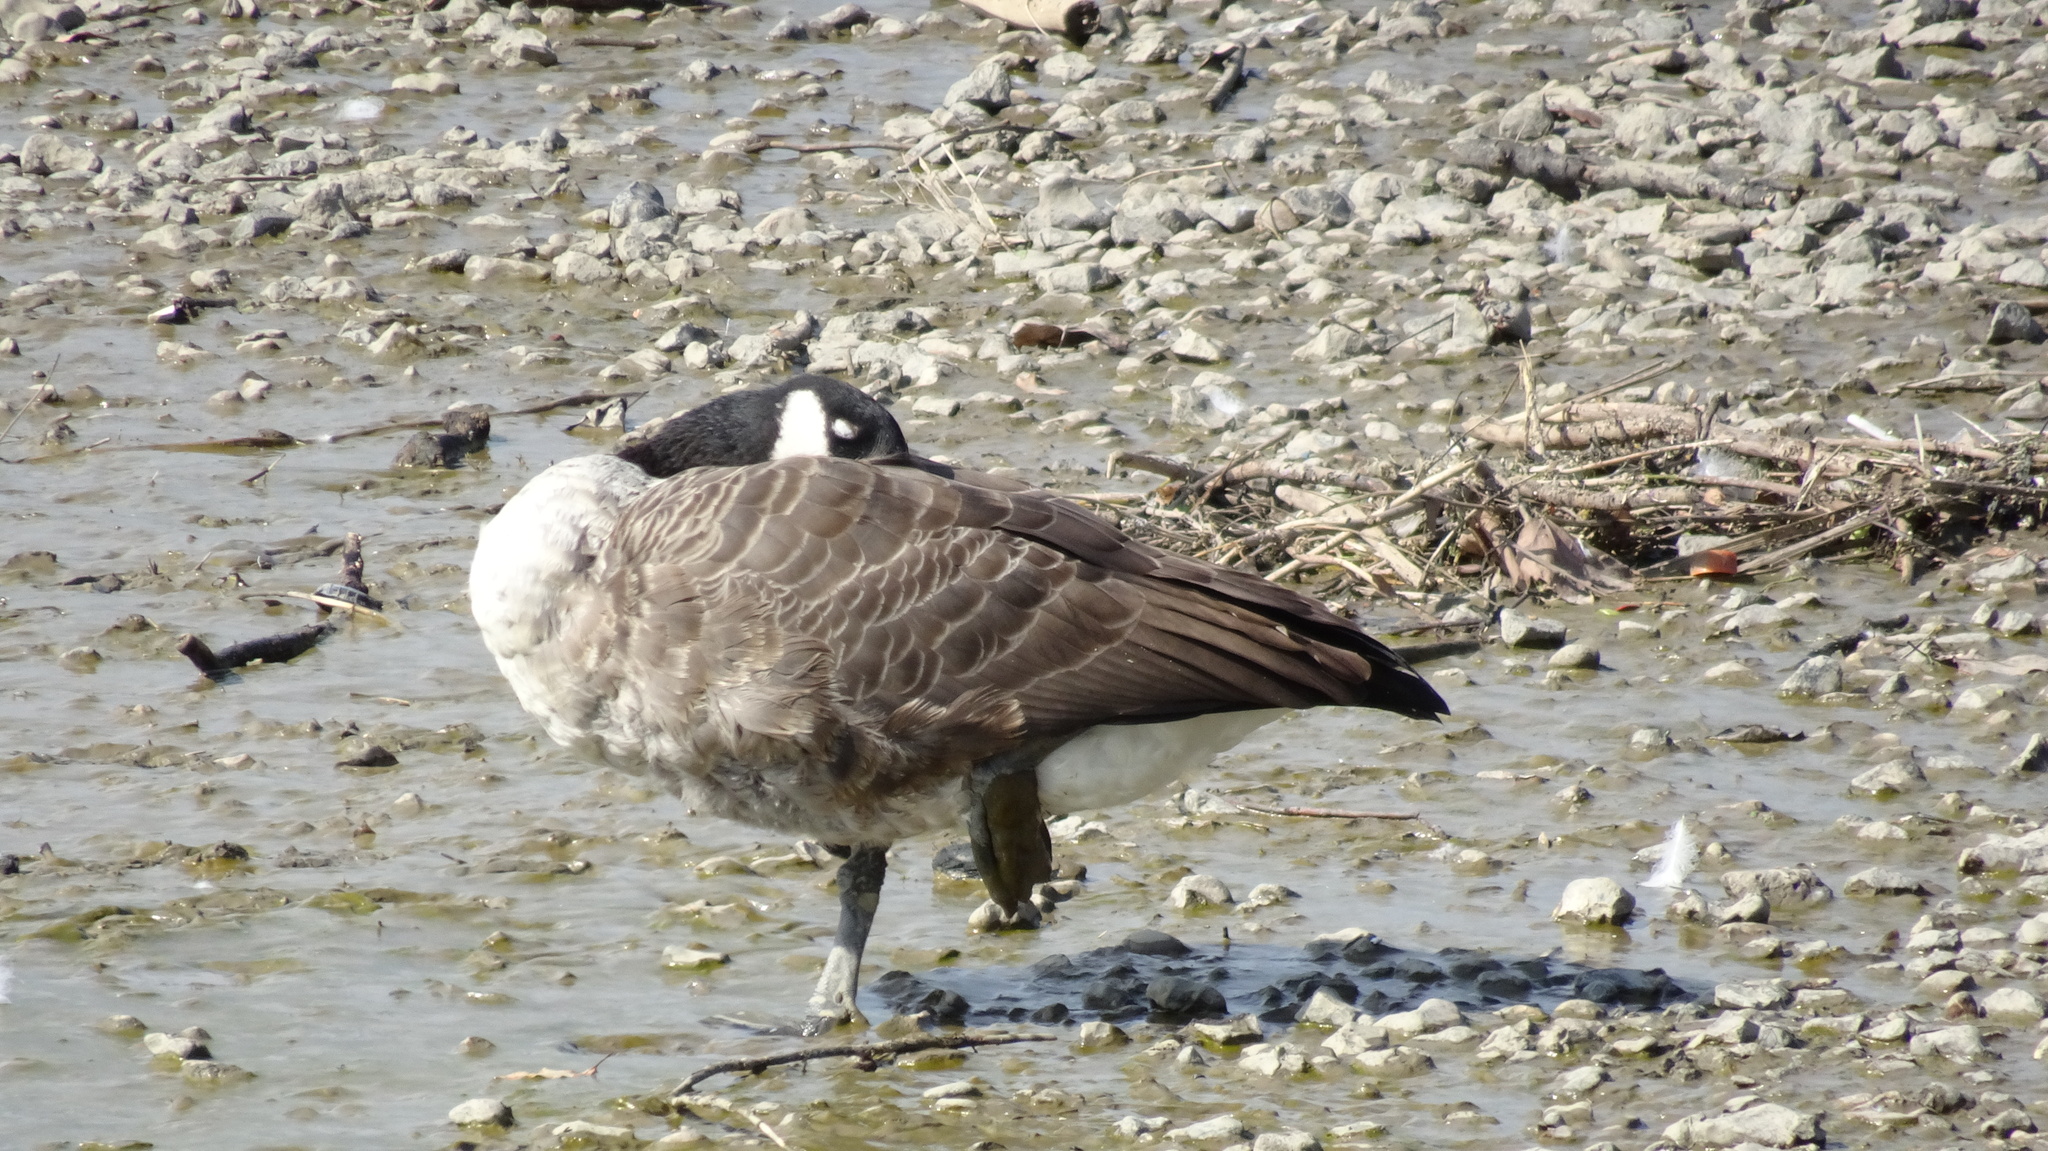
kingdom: Animalia
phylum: Chordata
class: Aves
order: Anseriformes
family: Anatidae
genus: Branta
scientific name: Branta canadensis
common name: Canada goose
